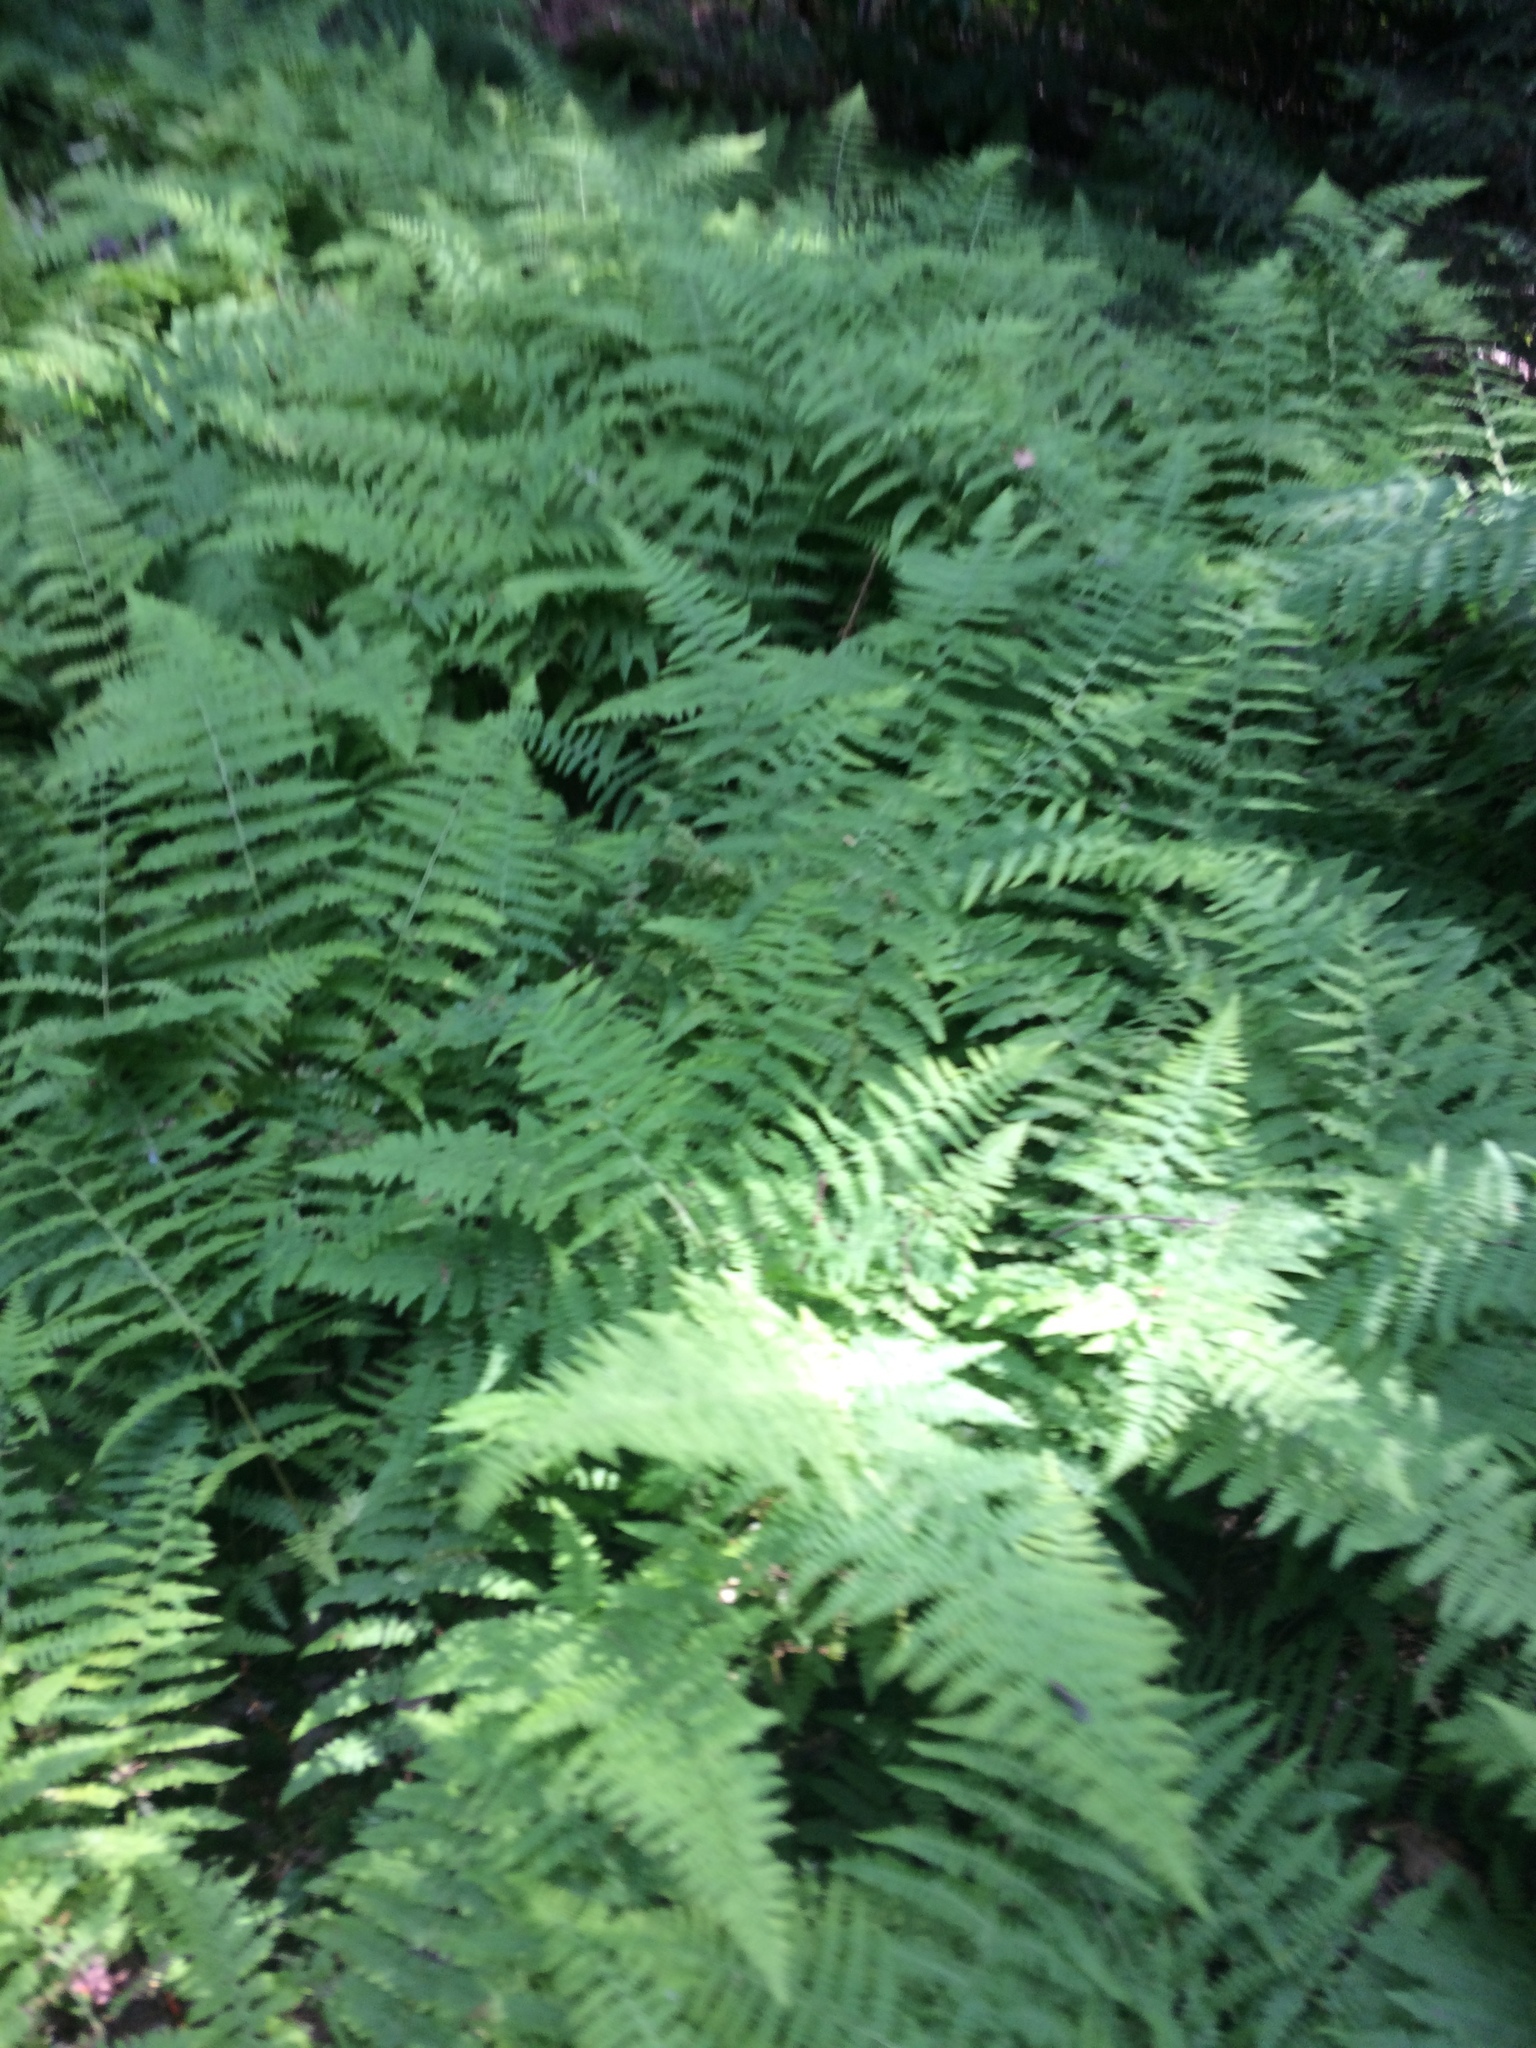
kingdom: Plantae
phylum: Tracheophyta
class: Polypodiopsida
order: Polypodiales
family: Dennstaedtiaceae
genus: Sitobolium
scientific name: Sitobolium punctilobum
